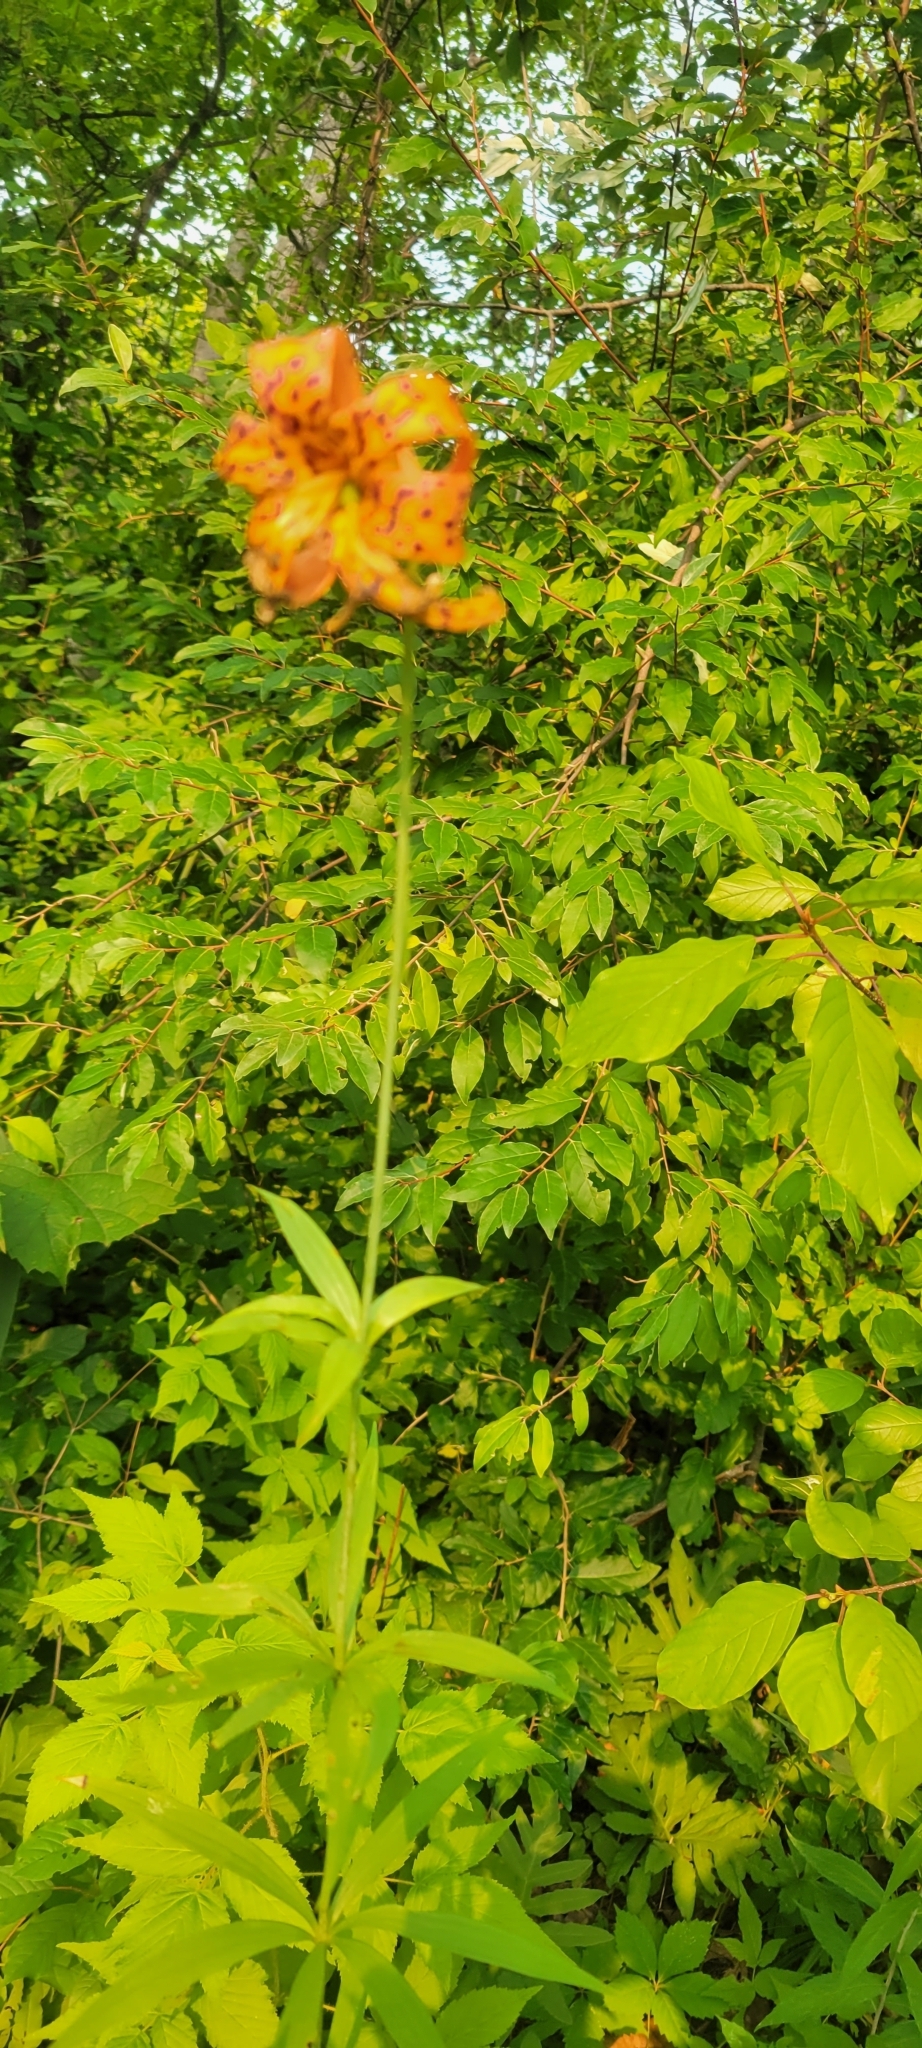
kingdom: Plantae
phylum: Tracheophyta
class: Liliopsida
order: Liliales
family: Liliaceae
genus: Lilium
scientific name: Lilium michiganense
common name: Michigan lily
